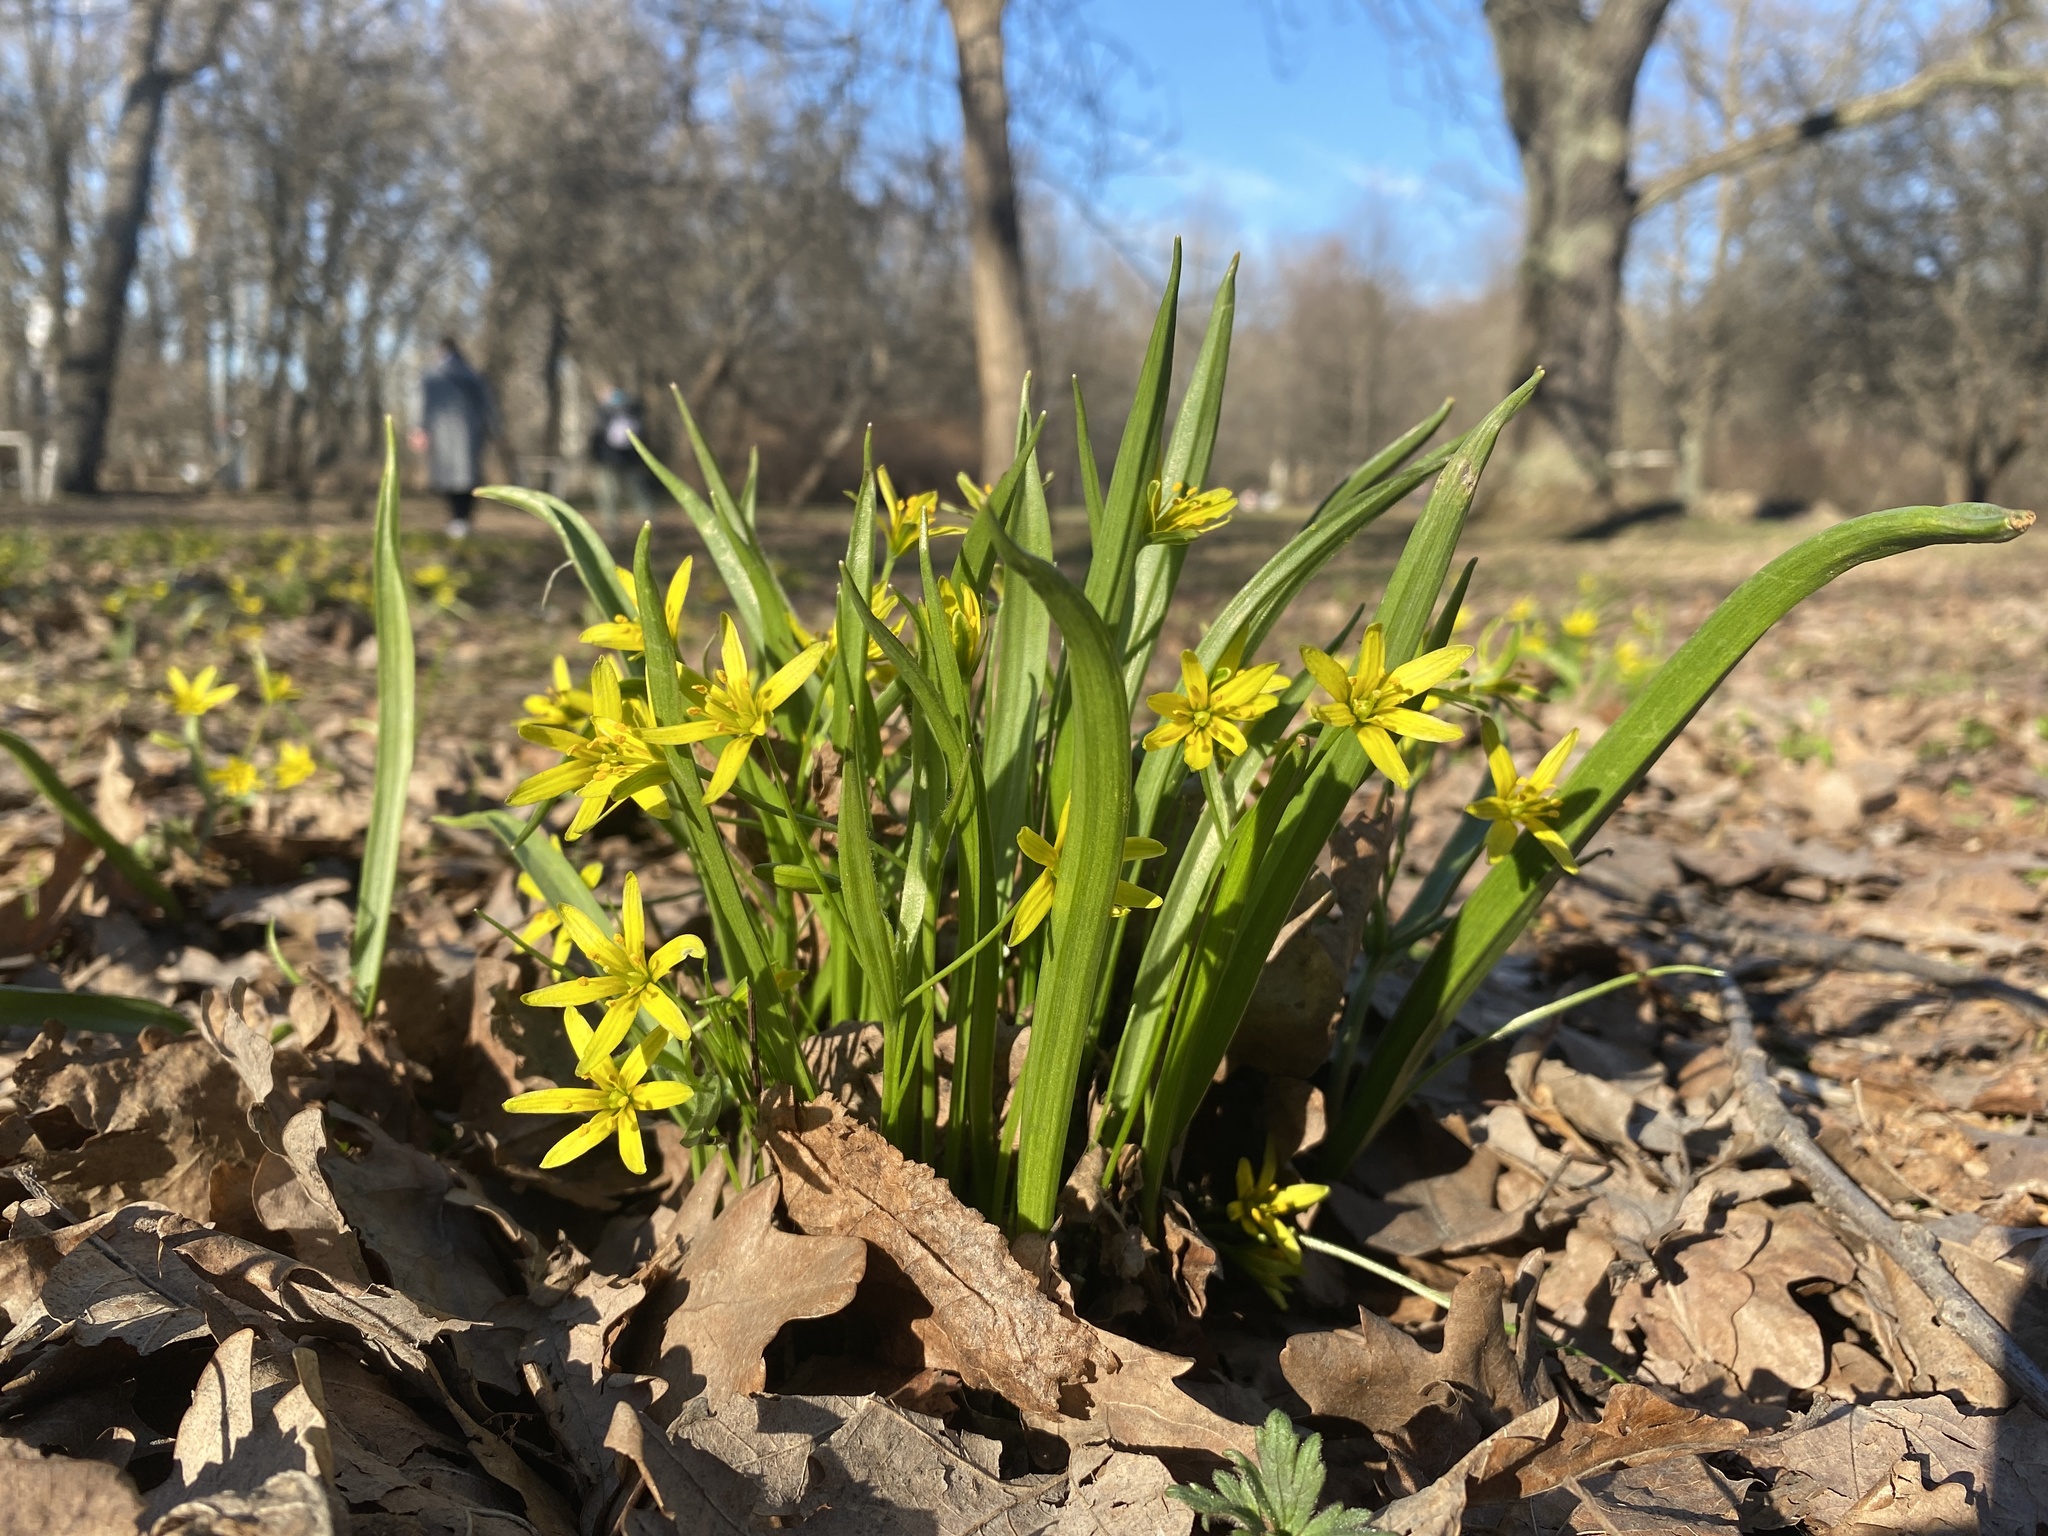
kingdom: Plantae
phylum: Tracheophyta
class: Liliopsida
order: Liliales
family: Liliaceae
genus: Gagea
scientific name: Gagea lutea
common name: Yellow star-of-bethlehem
